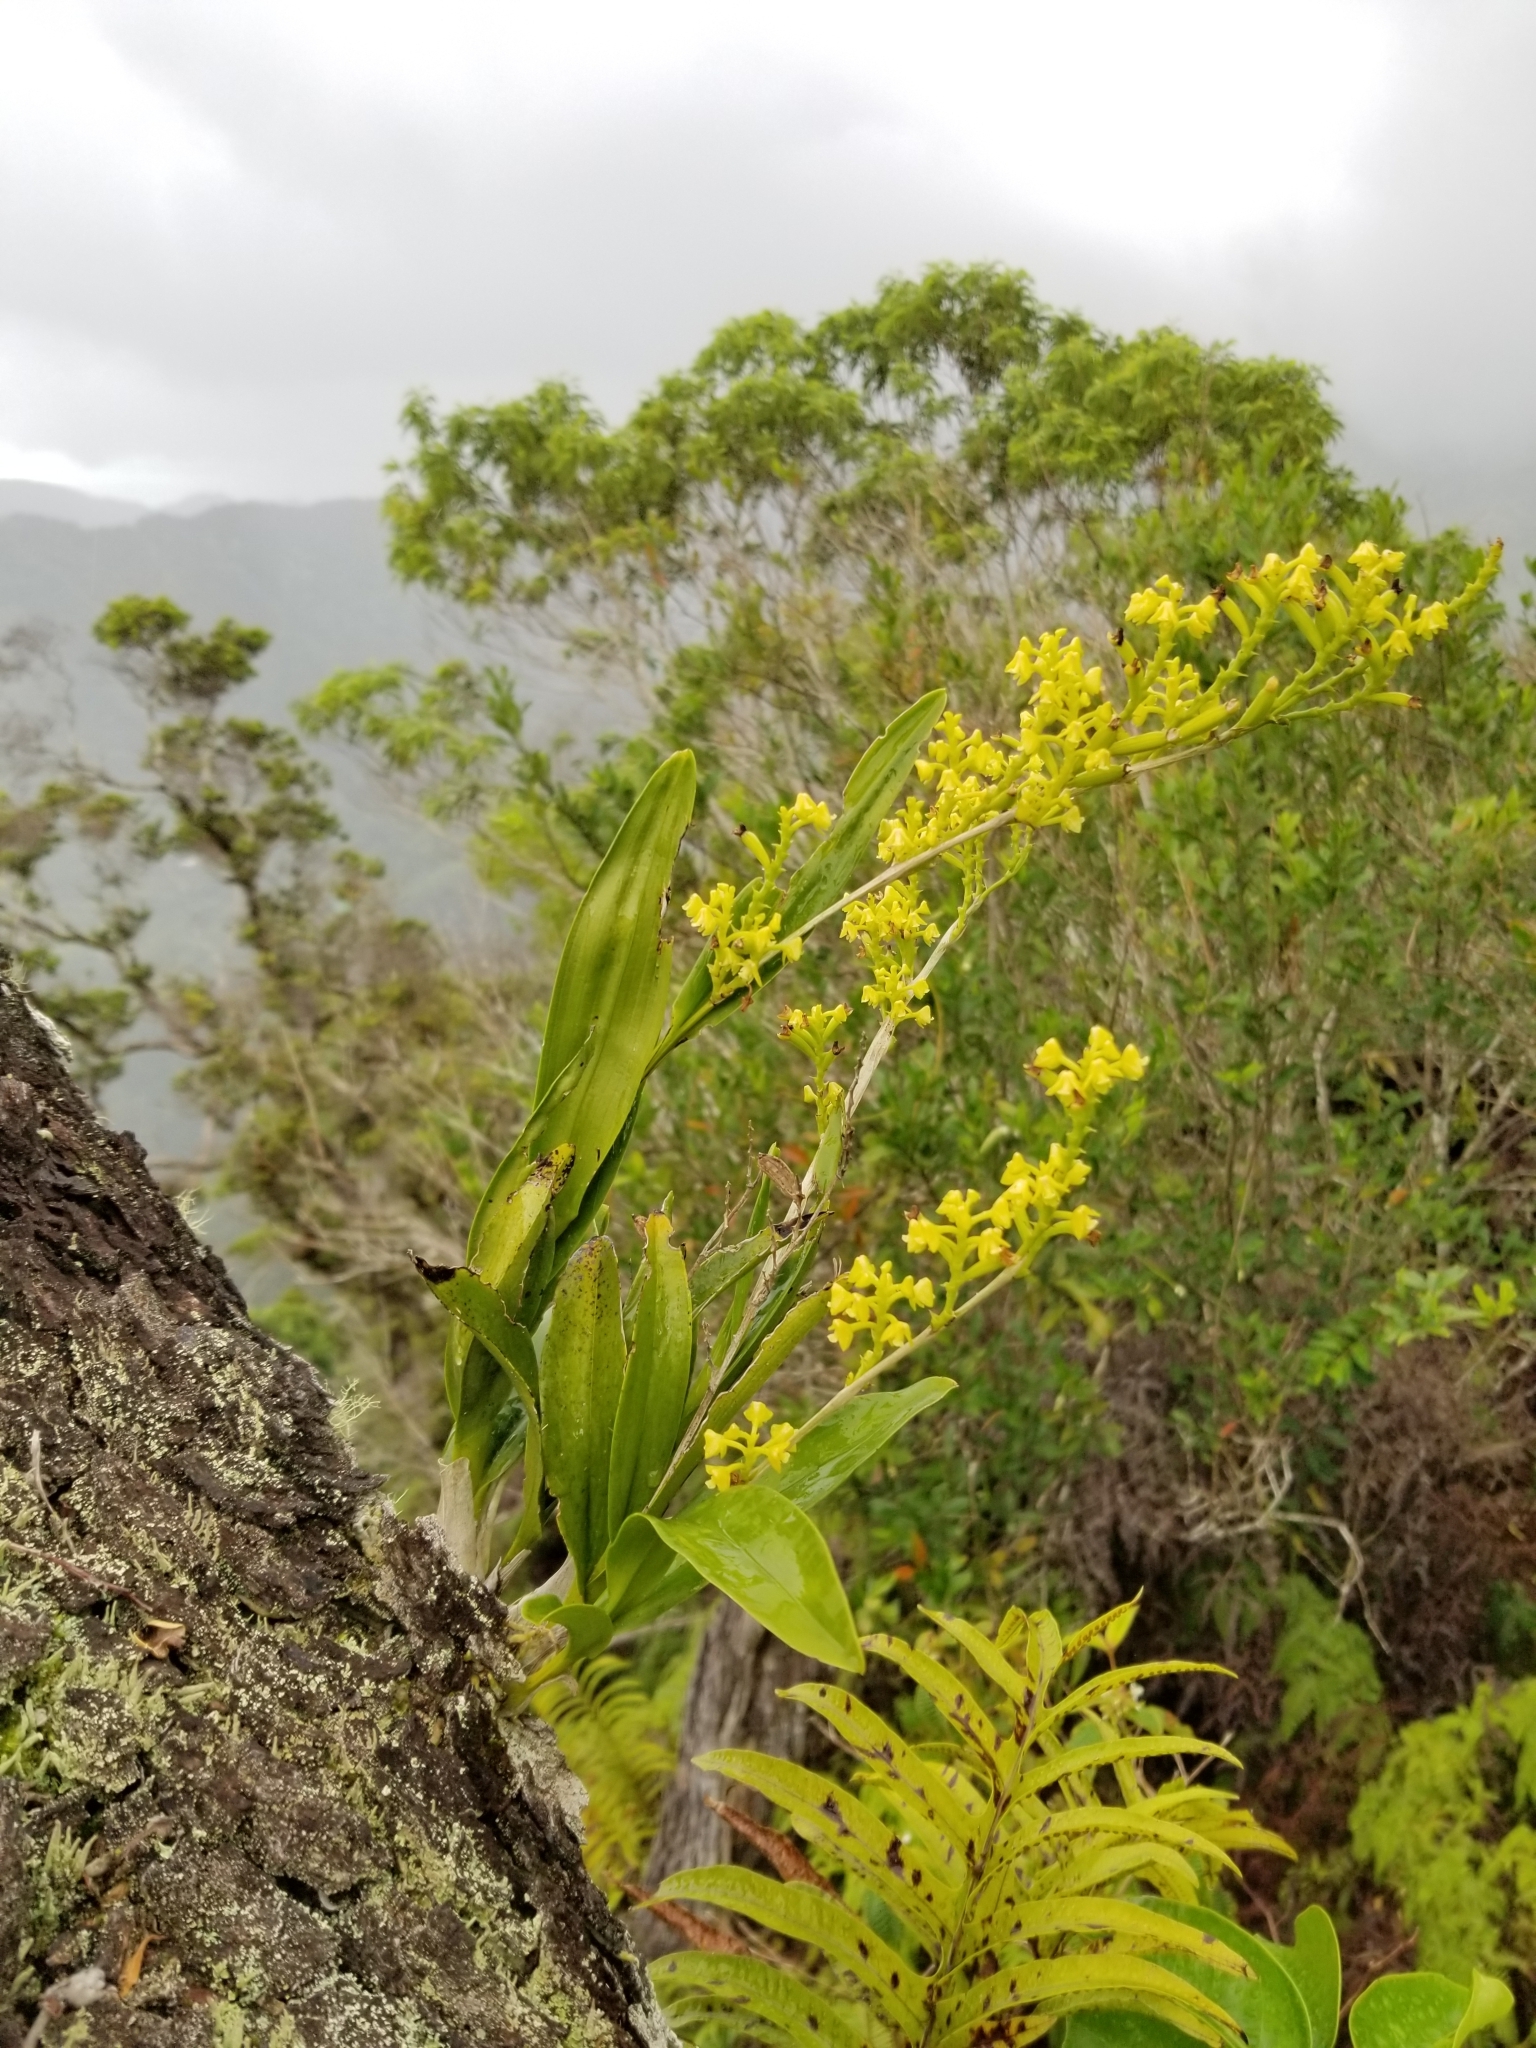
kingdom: Plantae
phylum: Tracheophyta
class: Liliopsida
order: Asparagales
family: Orchidaceae
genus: Polystachya
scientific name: Polystachya concreta
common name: Greater yellowspike orchid
